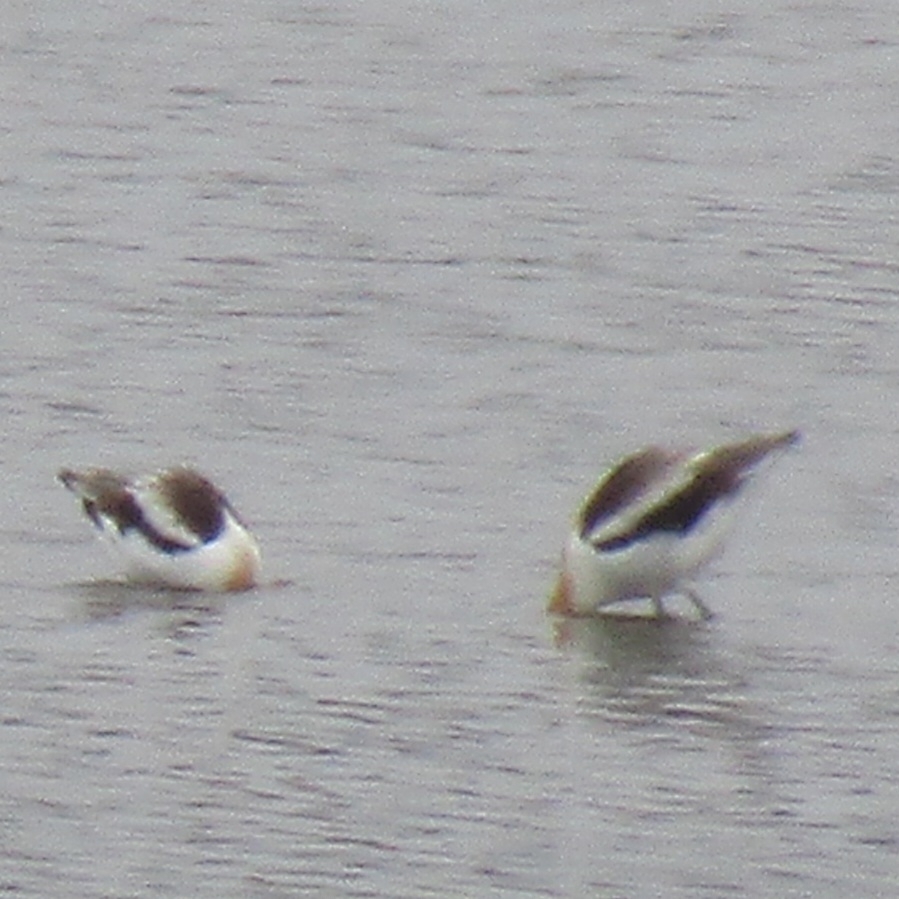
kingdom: Animalia
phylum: Chordata
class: Aves
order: Charadriiformes
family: Recurvirostridae
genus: Recurvirostra
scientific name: Recurvirostra americana
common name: American avocet
